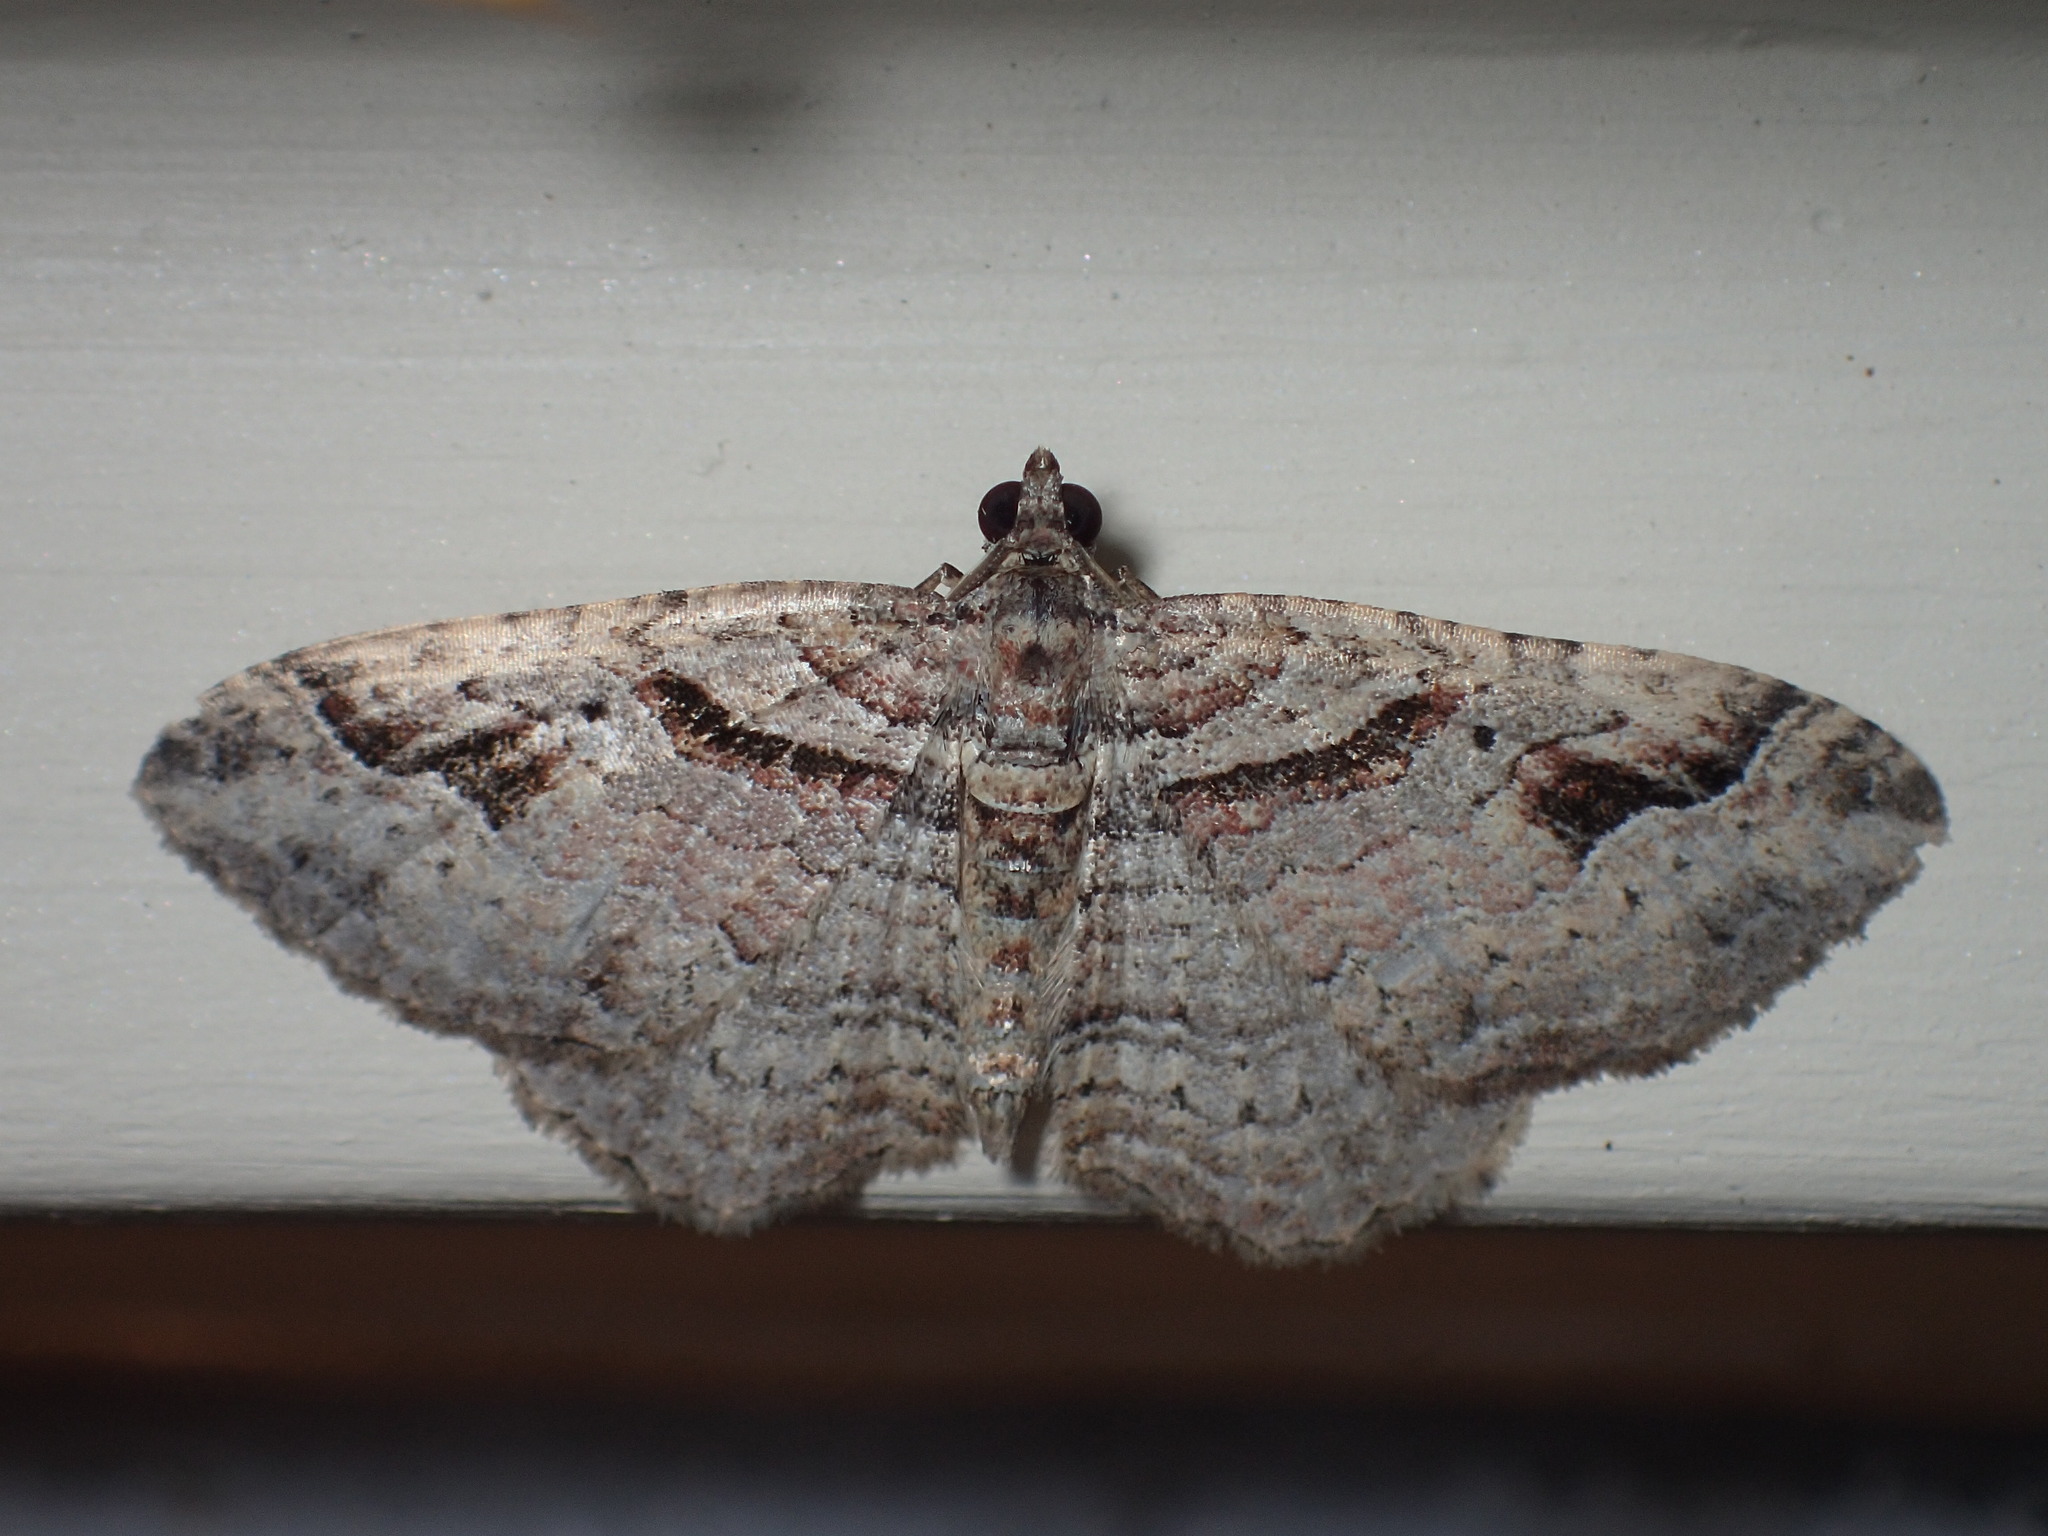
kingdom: Animalia
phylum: Arthropoda
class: Insecta
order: Lepidoptera
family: Geometridae
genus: Costaconvexa
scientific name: Costaconvexa centrostrigaria
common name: Bent-line carpet
